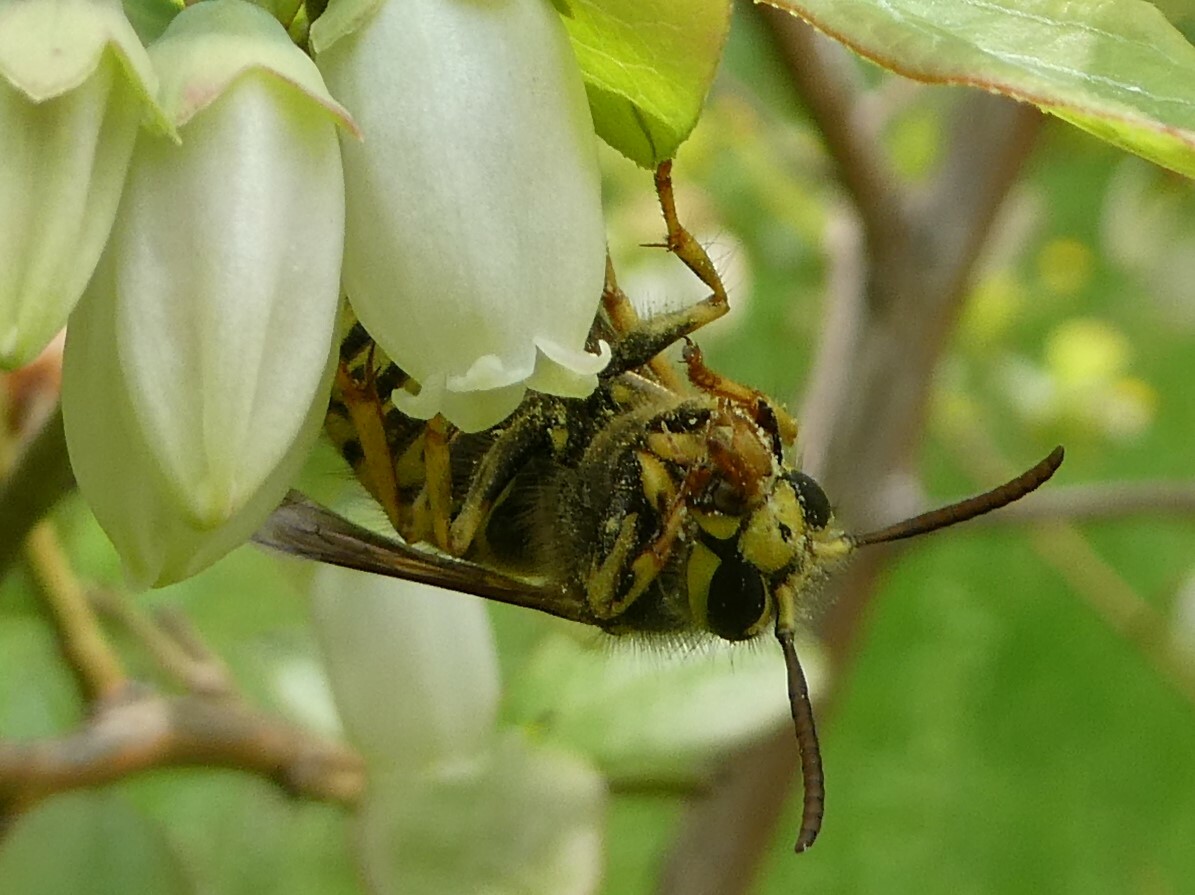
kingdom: Animalia
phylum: Arthropoda
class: Insecta
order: Hymenoptera
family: Vespidae
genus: Dolichovespula
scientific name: Dolichovespula arenaria
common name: Aerial yellowjacket
